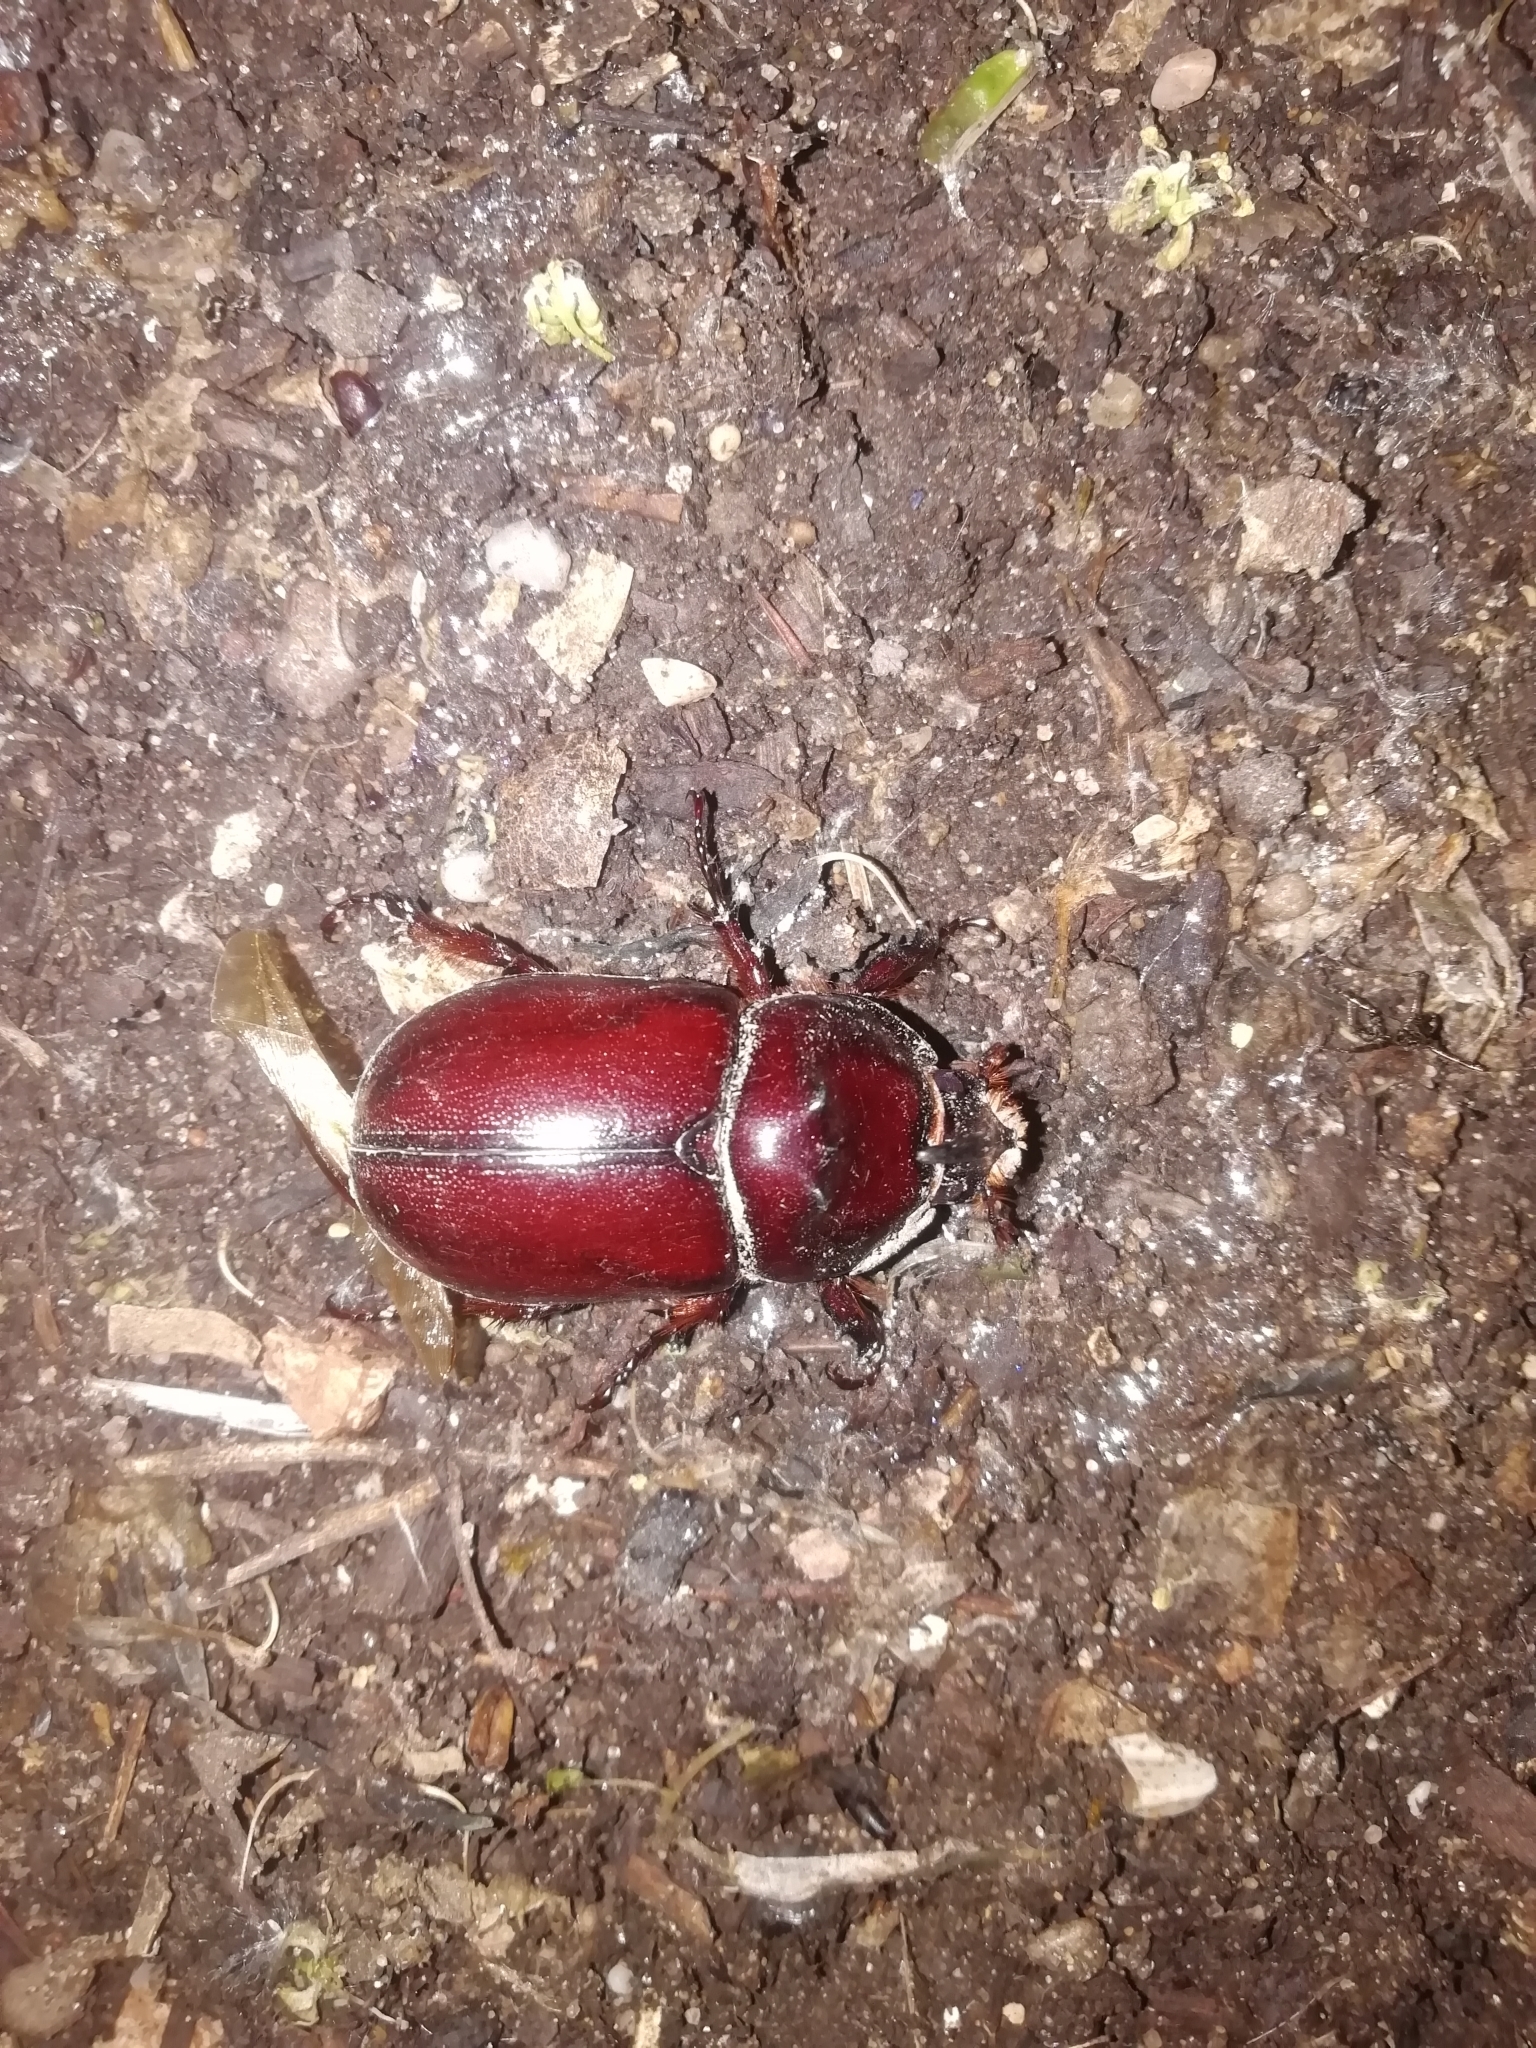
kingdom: Animalia
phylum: Arthropoda
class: Insecta
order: Coleoptera
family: Scarabaeidae
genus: Oryctes
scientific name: Oryctes nasicornis
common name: European rhinoceros beetle
